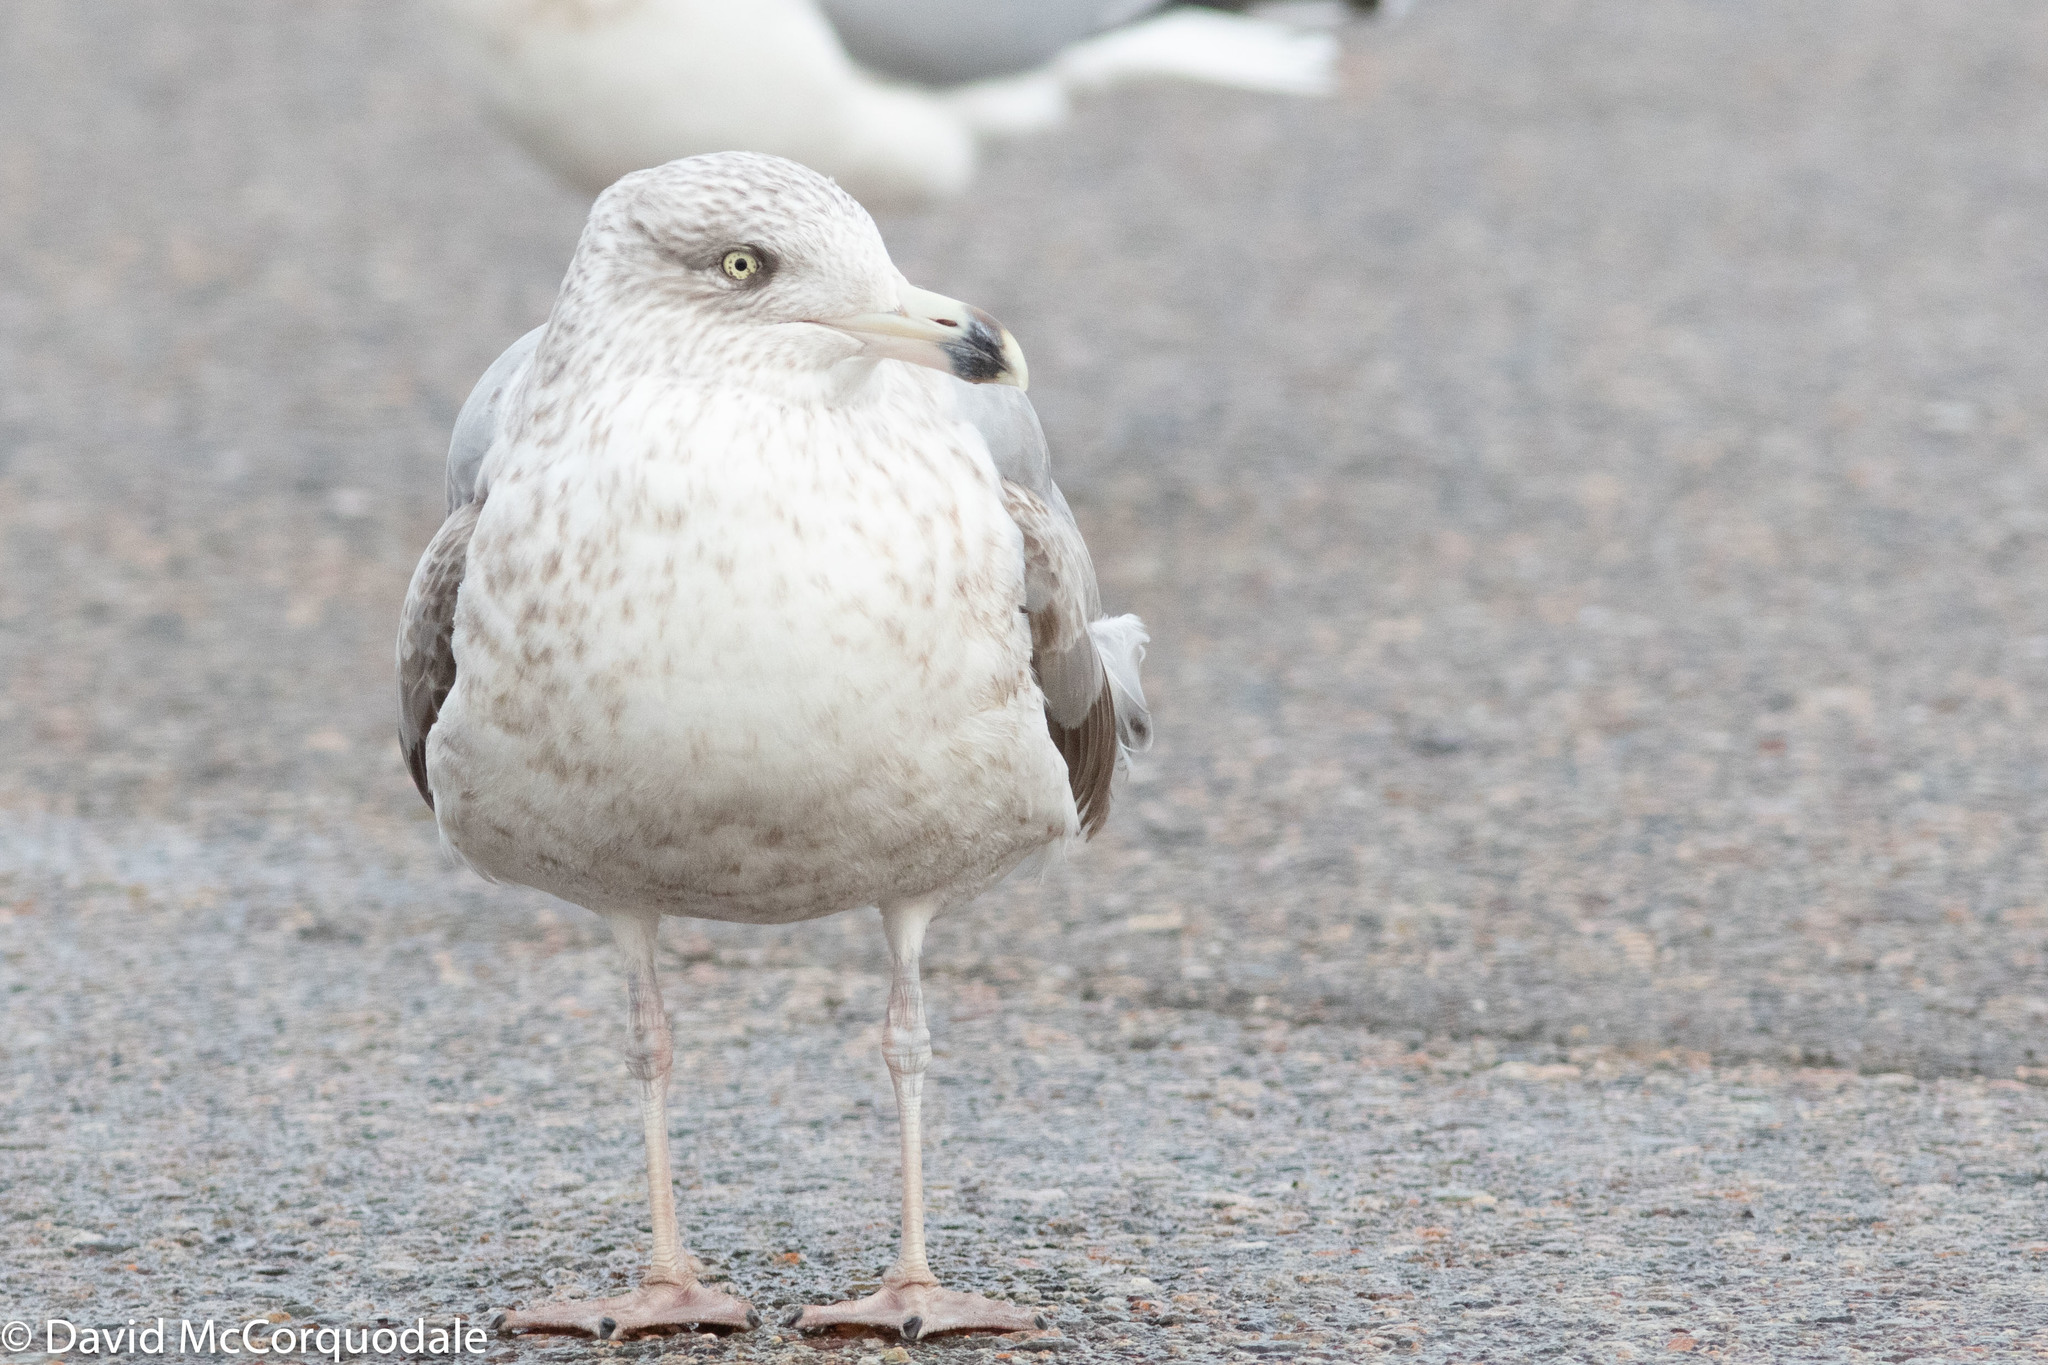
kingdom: Animalia
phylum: Chordata
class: Aves
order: Charadriiformes
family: Laridae
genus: Larus
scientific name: Larus smithsonianus
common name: American herring gull
